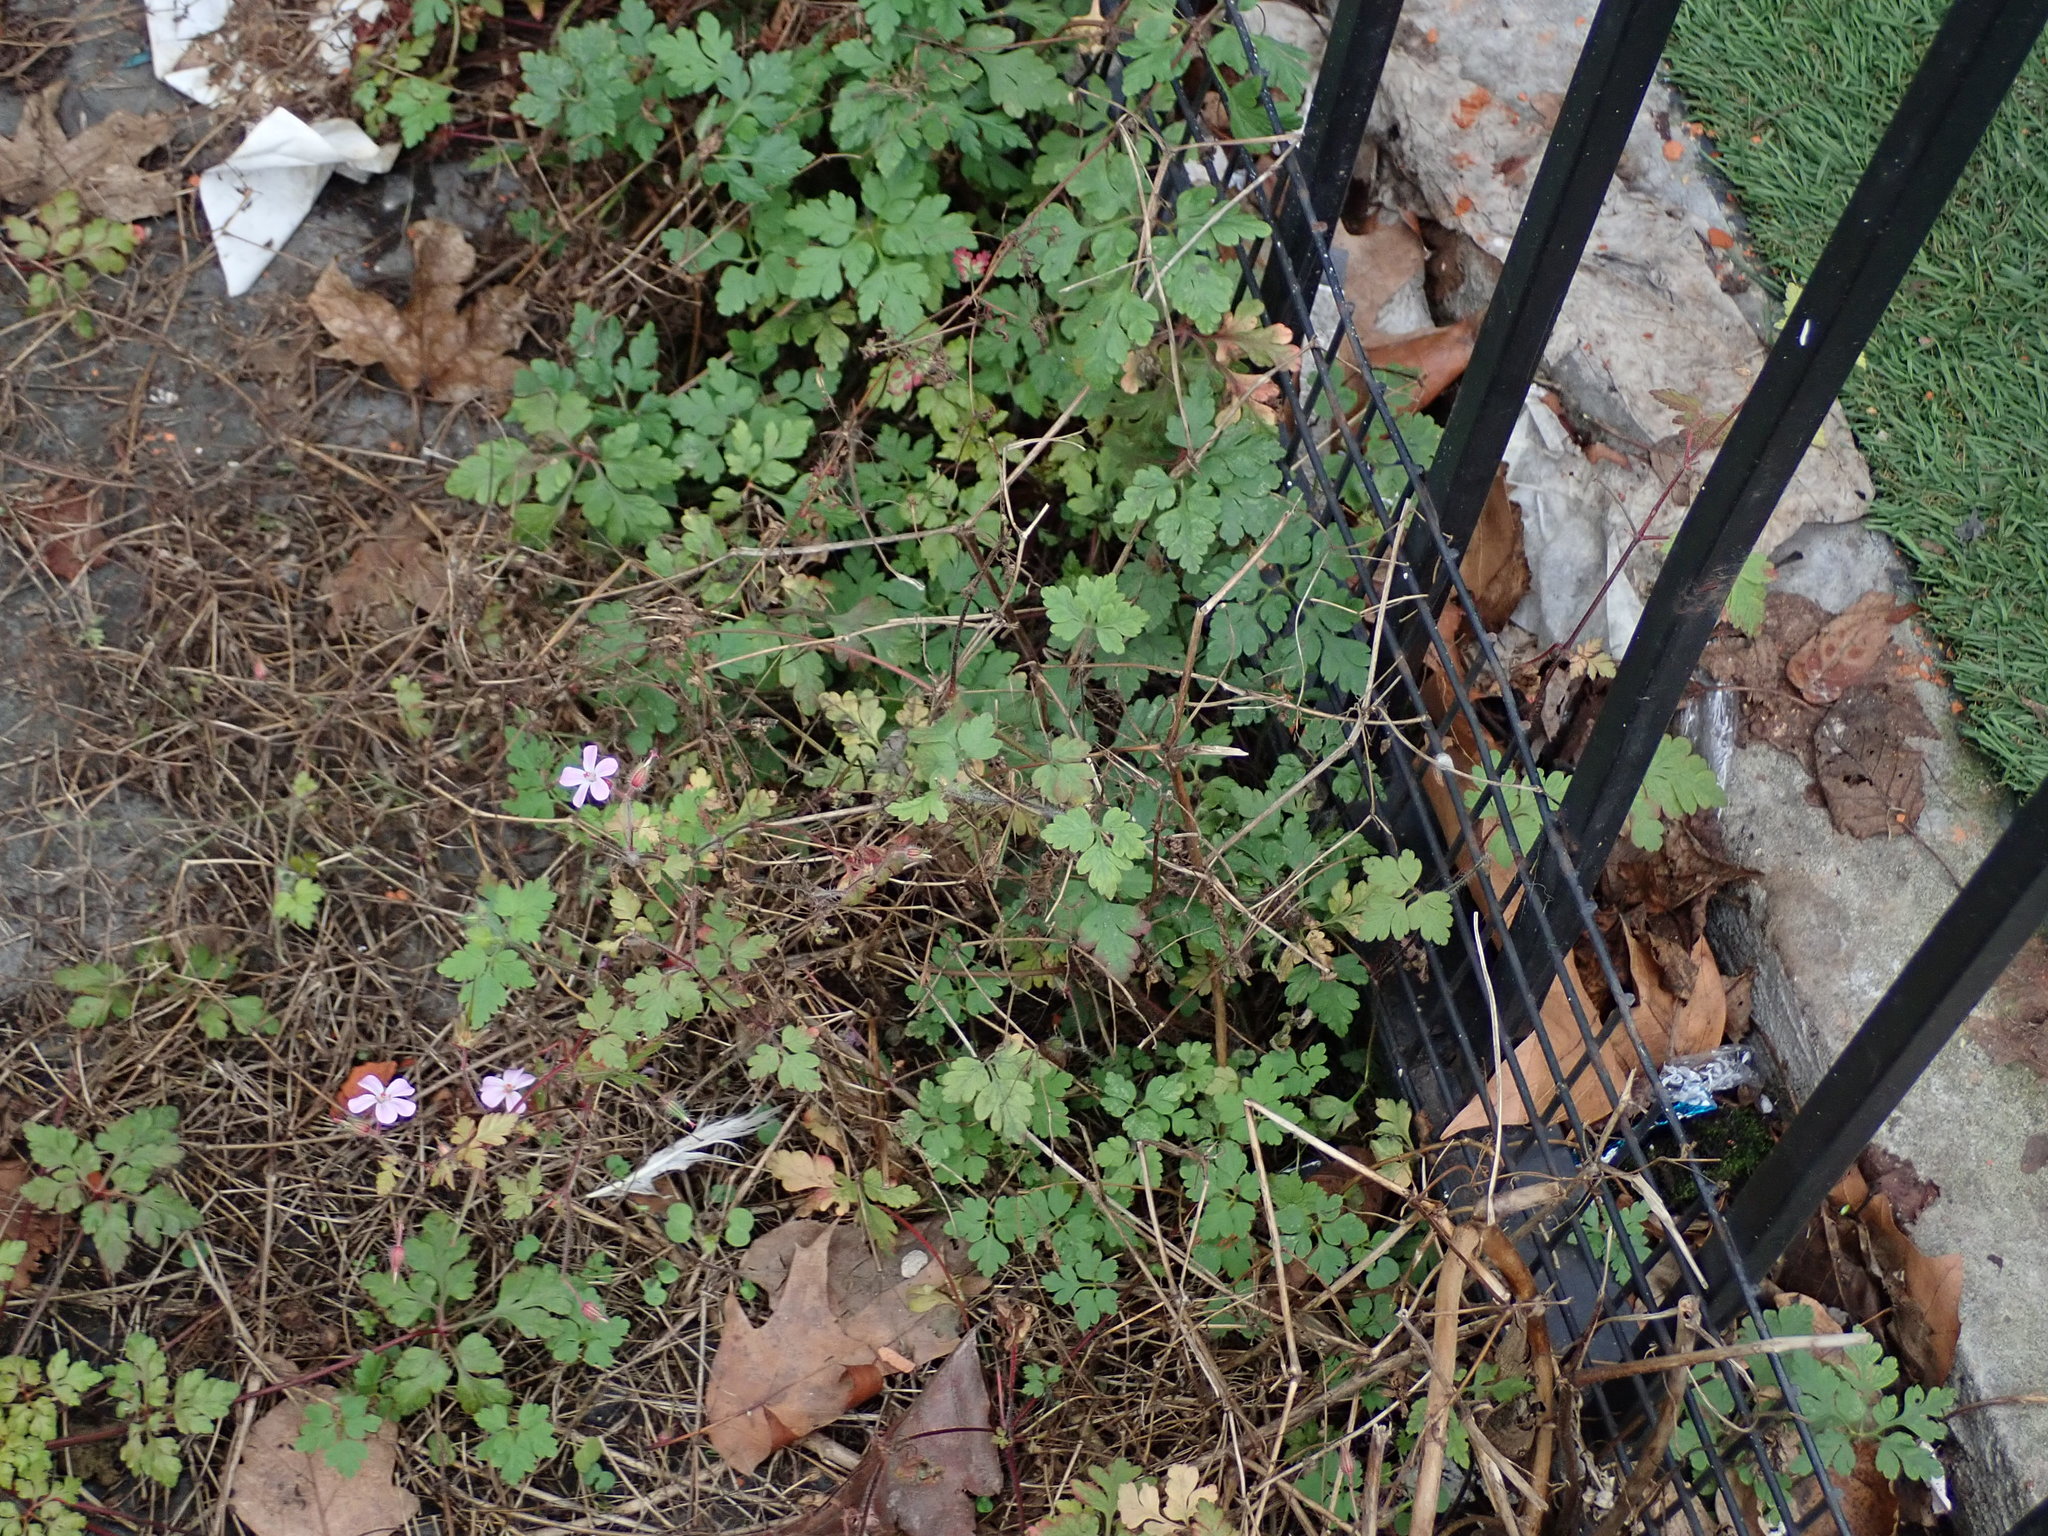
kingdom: Plantae
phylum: Tracheophyta
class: Magnoliopsida
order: Geraniales
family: Geraniaceae
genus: Geranium
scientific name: Geranium robertianum
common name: Herb-robert
